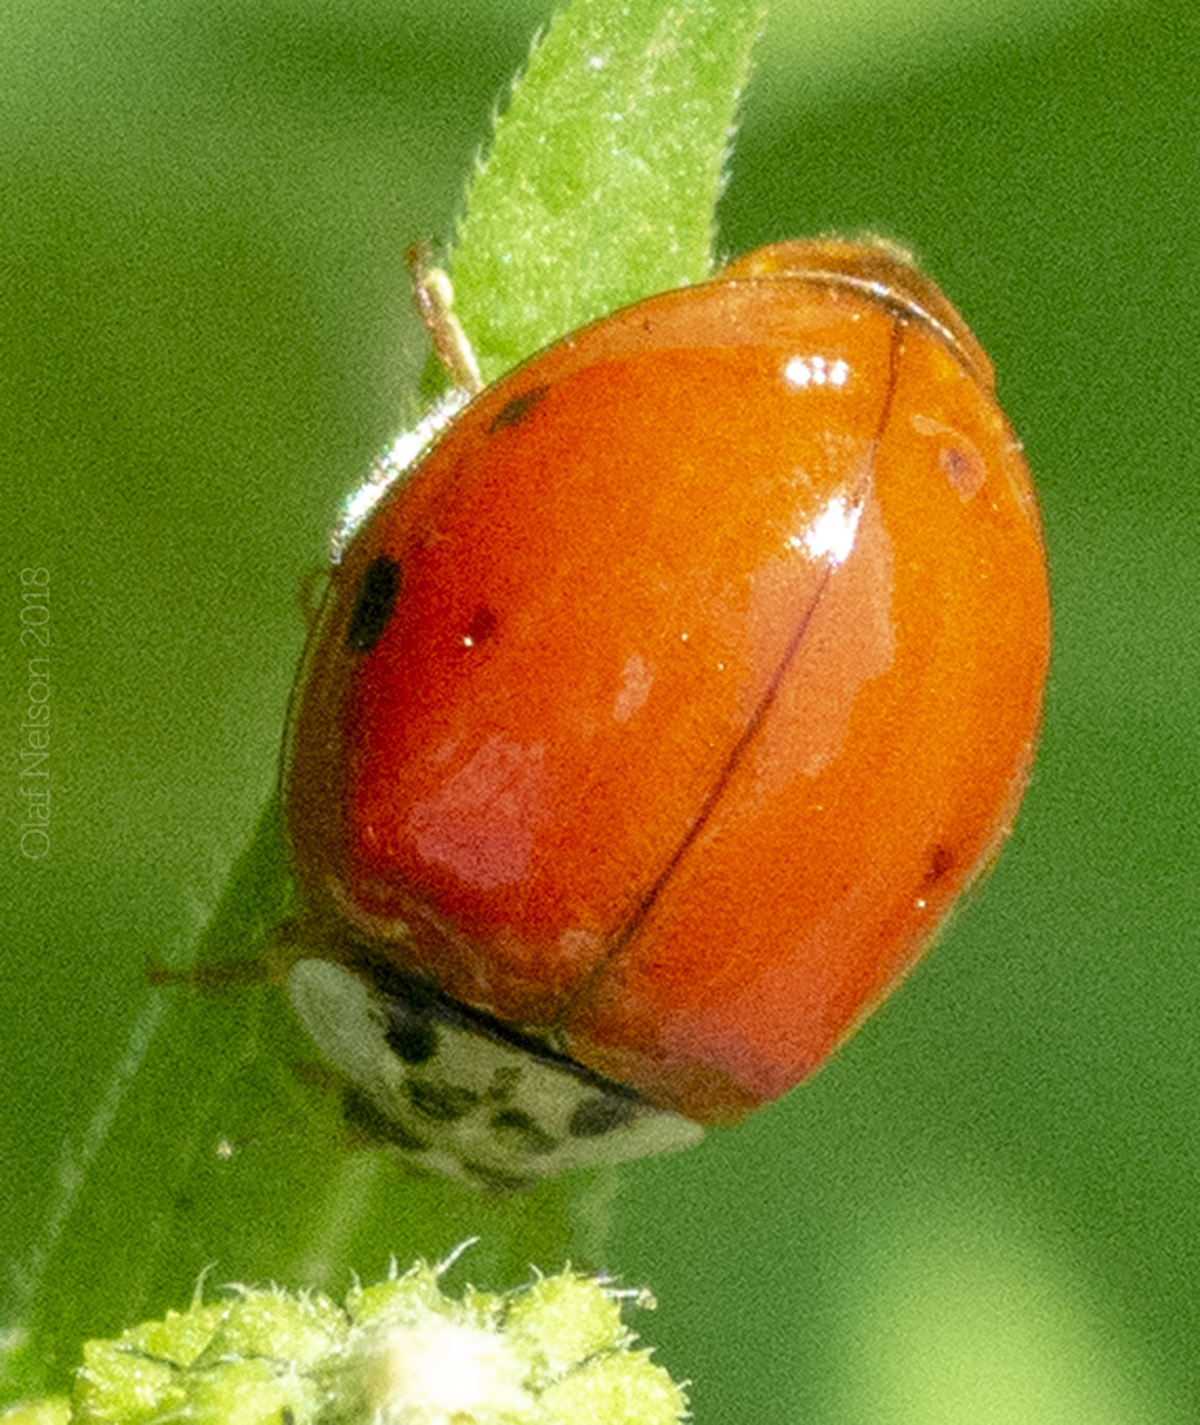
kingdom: Animalia
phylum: Arthropoda
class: Insecta
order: Coleoptera
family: Coccinellidae
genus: Harmonia
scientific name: Harmonia axyridis
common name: Harlequin ladybird
